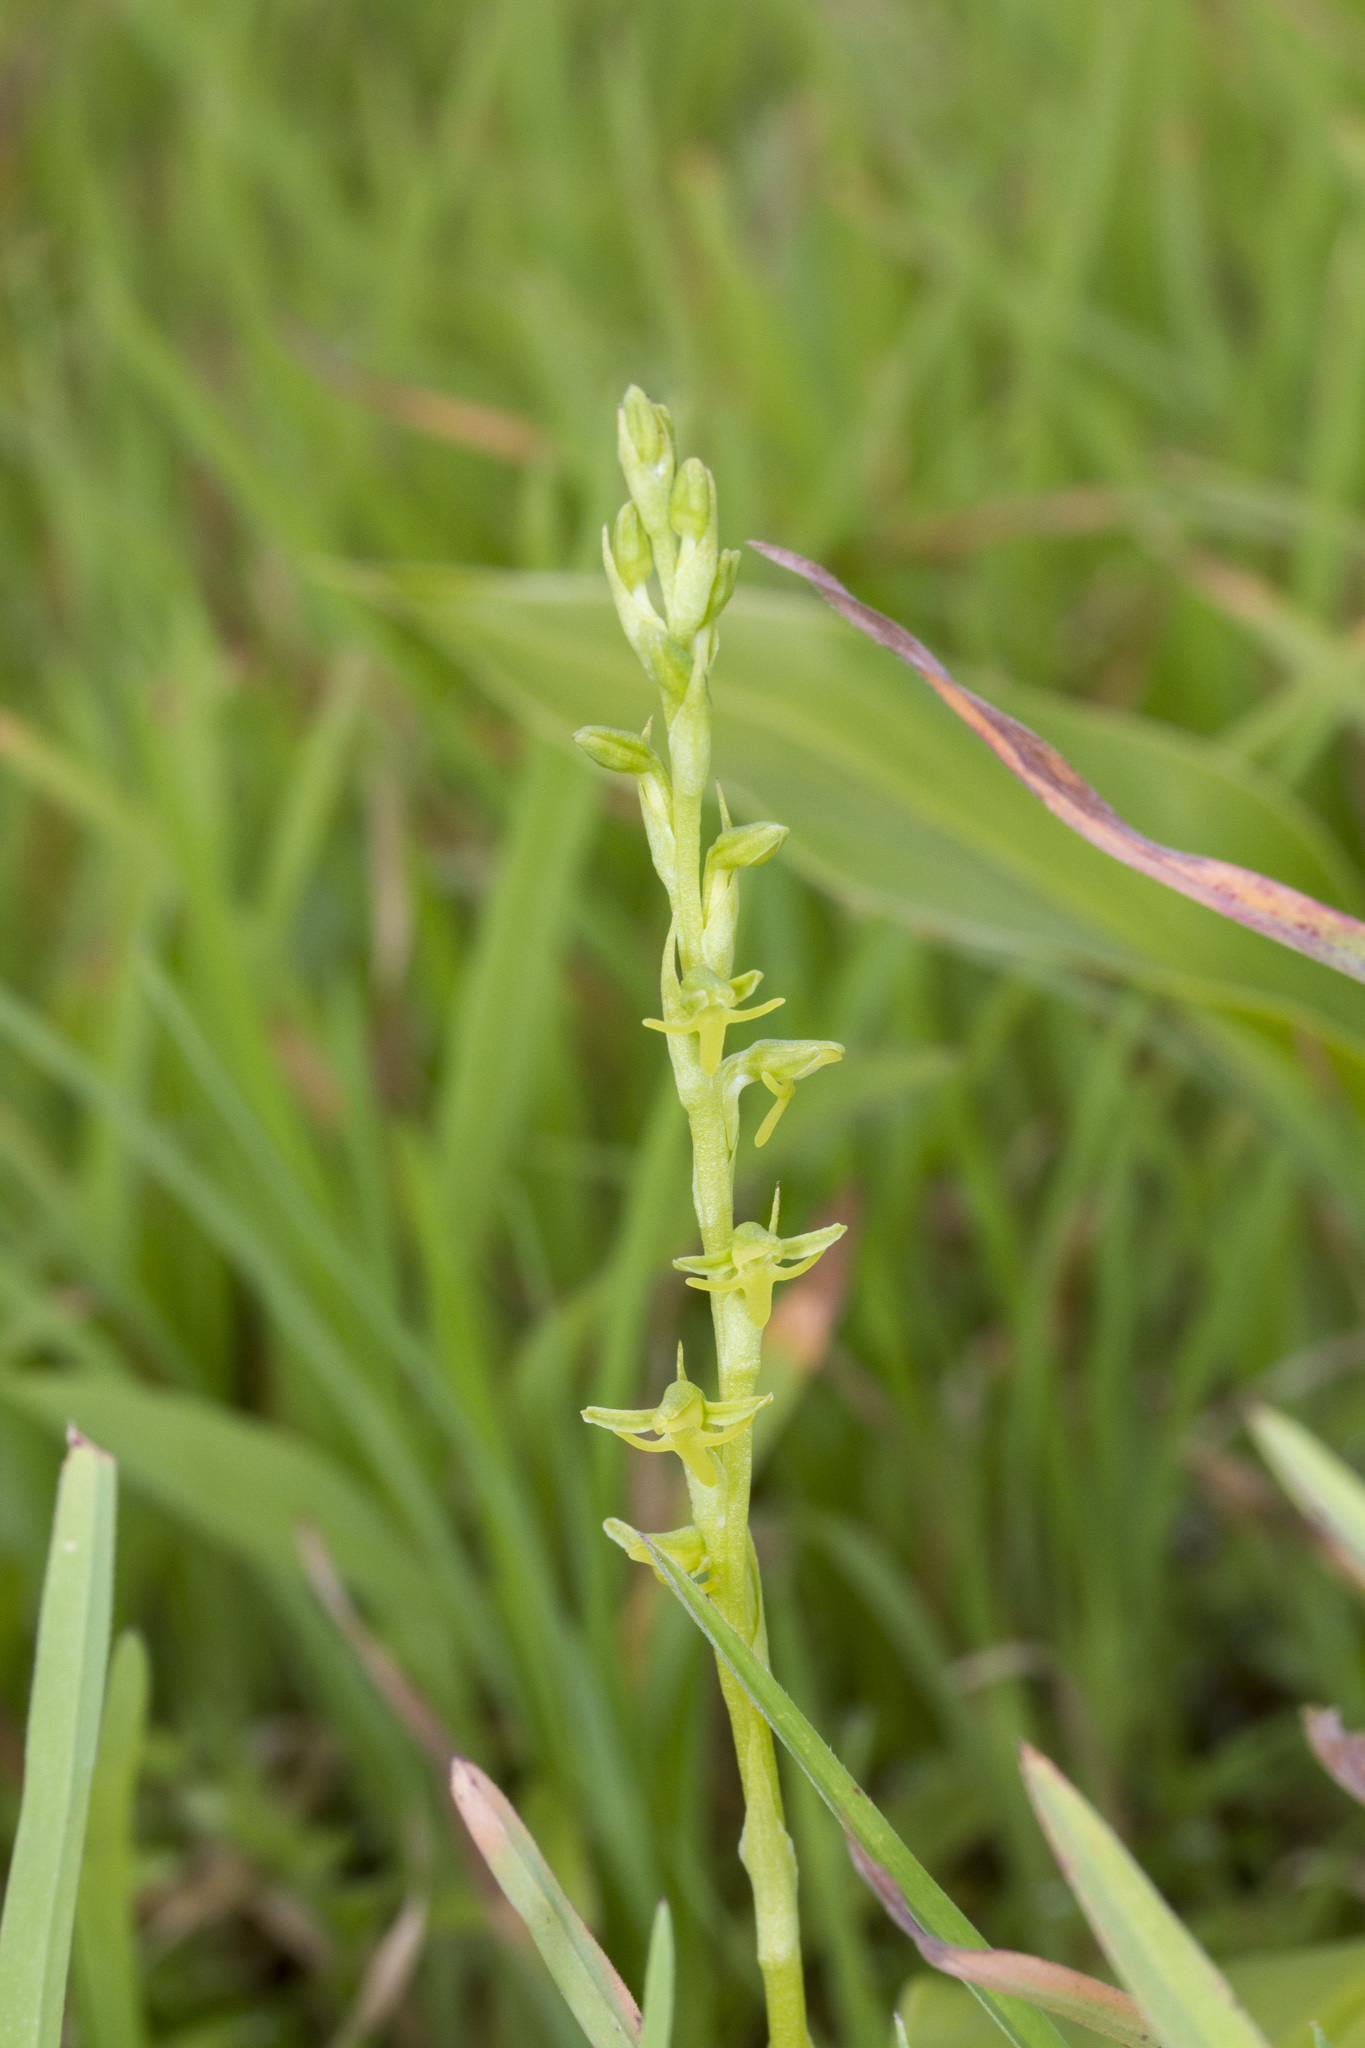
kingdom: Plantae
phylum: Tracheophyta
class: Liliopsida
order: Asparagales
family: Orchidaceae
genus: Peristylus
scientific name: Peristylus densus
